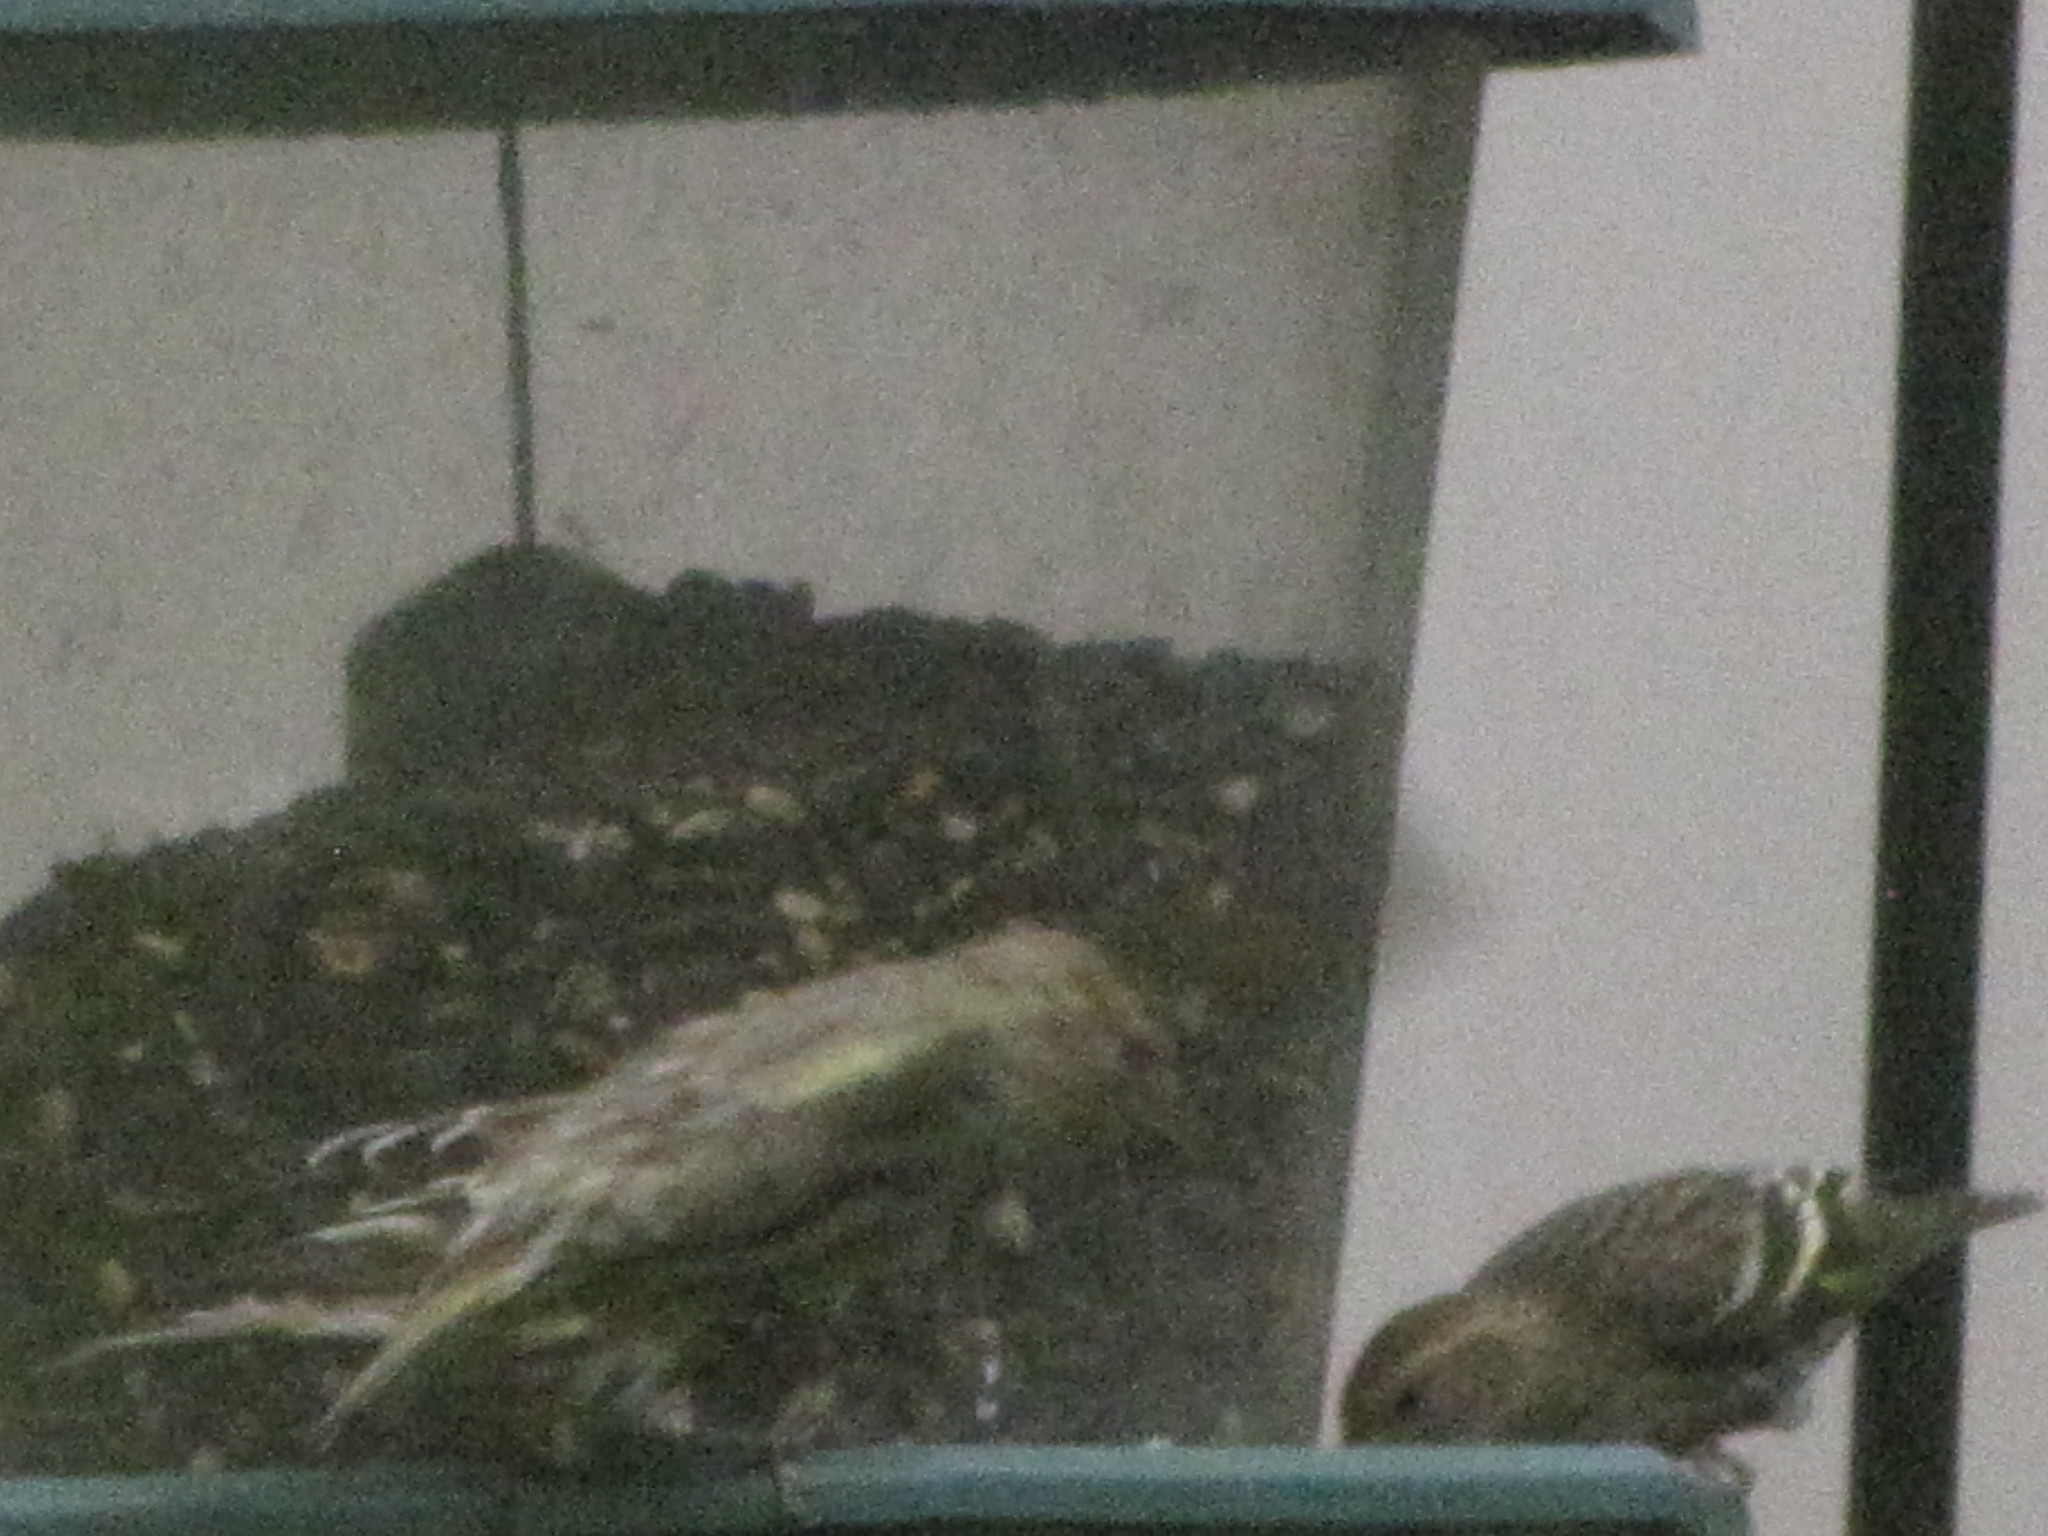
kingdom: Animalia
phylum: Chordata
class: Aves
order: Passeriformes
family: Fringillidae
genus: Spinus
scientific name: Spinus pinus
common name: Pine siskin
